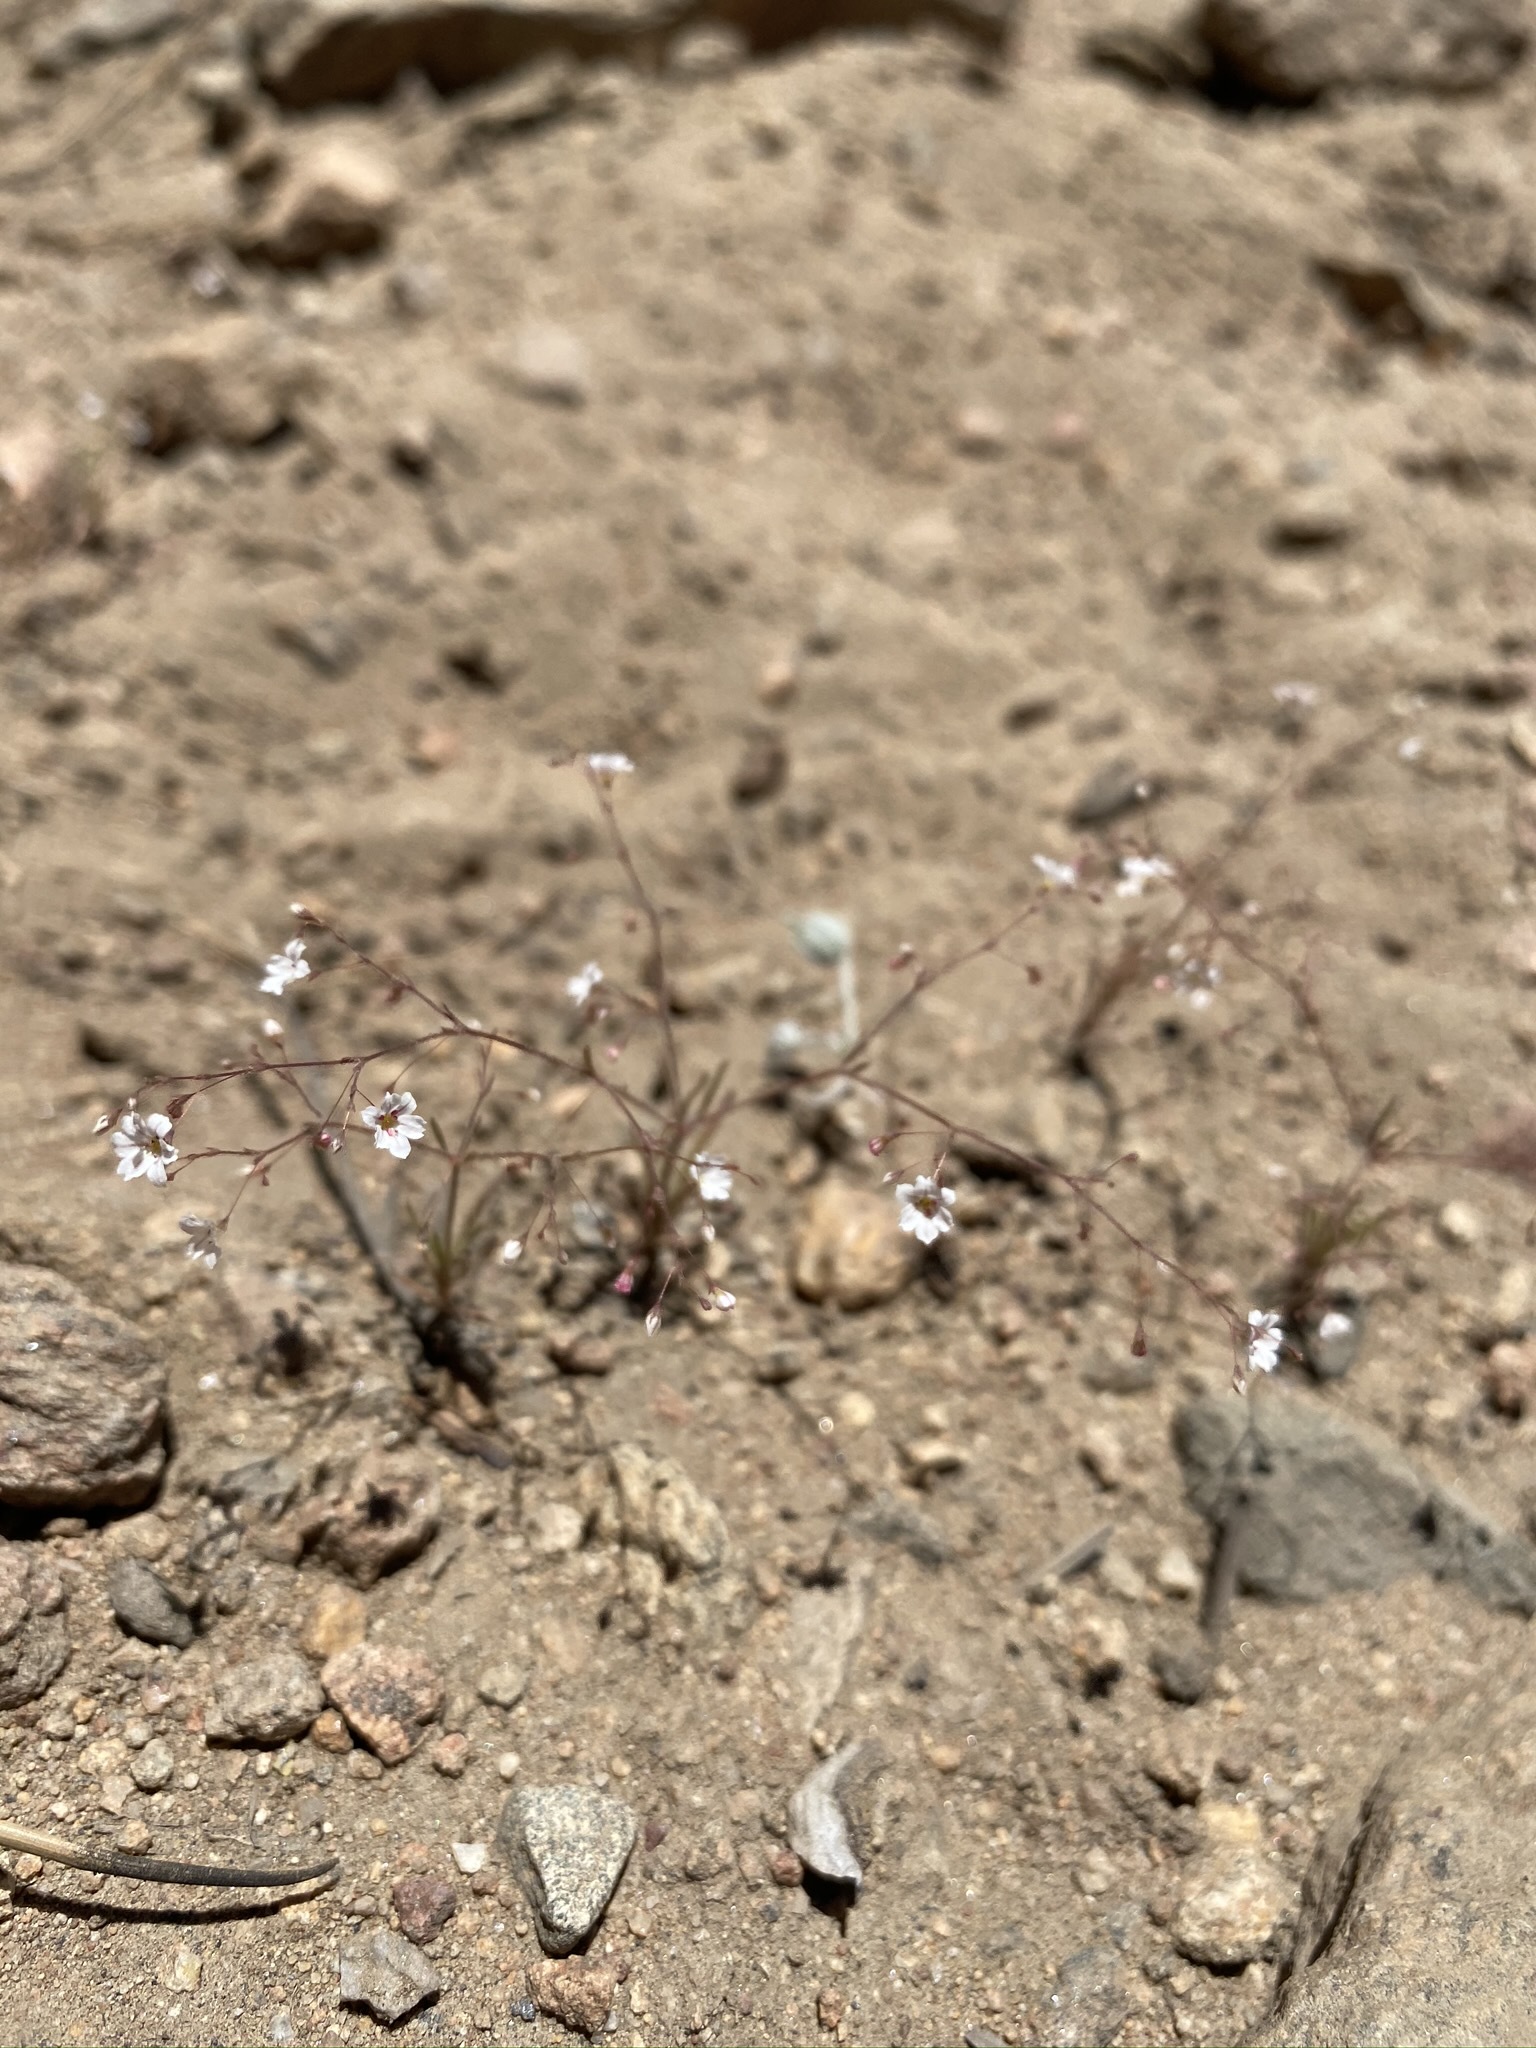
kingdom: Plantae
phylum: Tracheophyta
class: Magnoliopsida
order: Caryophyllales
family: Polygonaceae
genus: Eriogonum
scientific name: Eriogonum spergulinum
